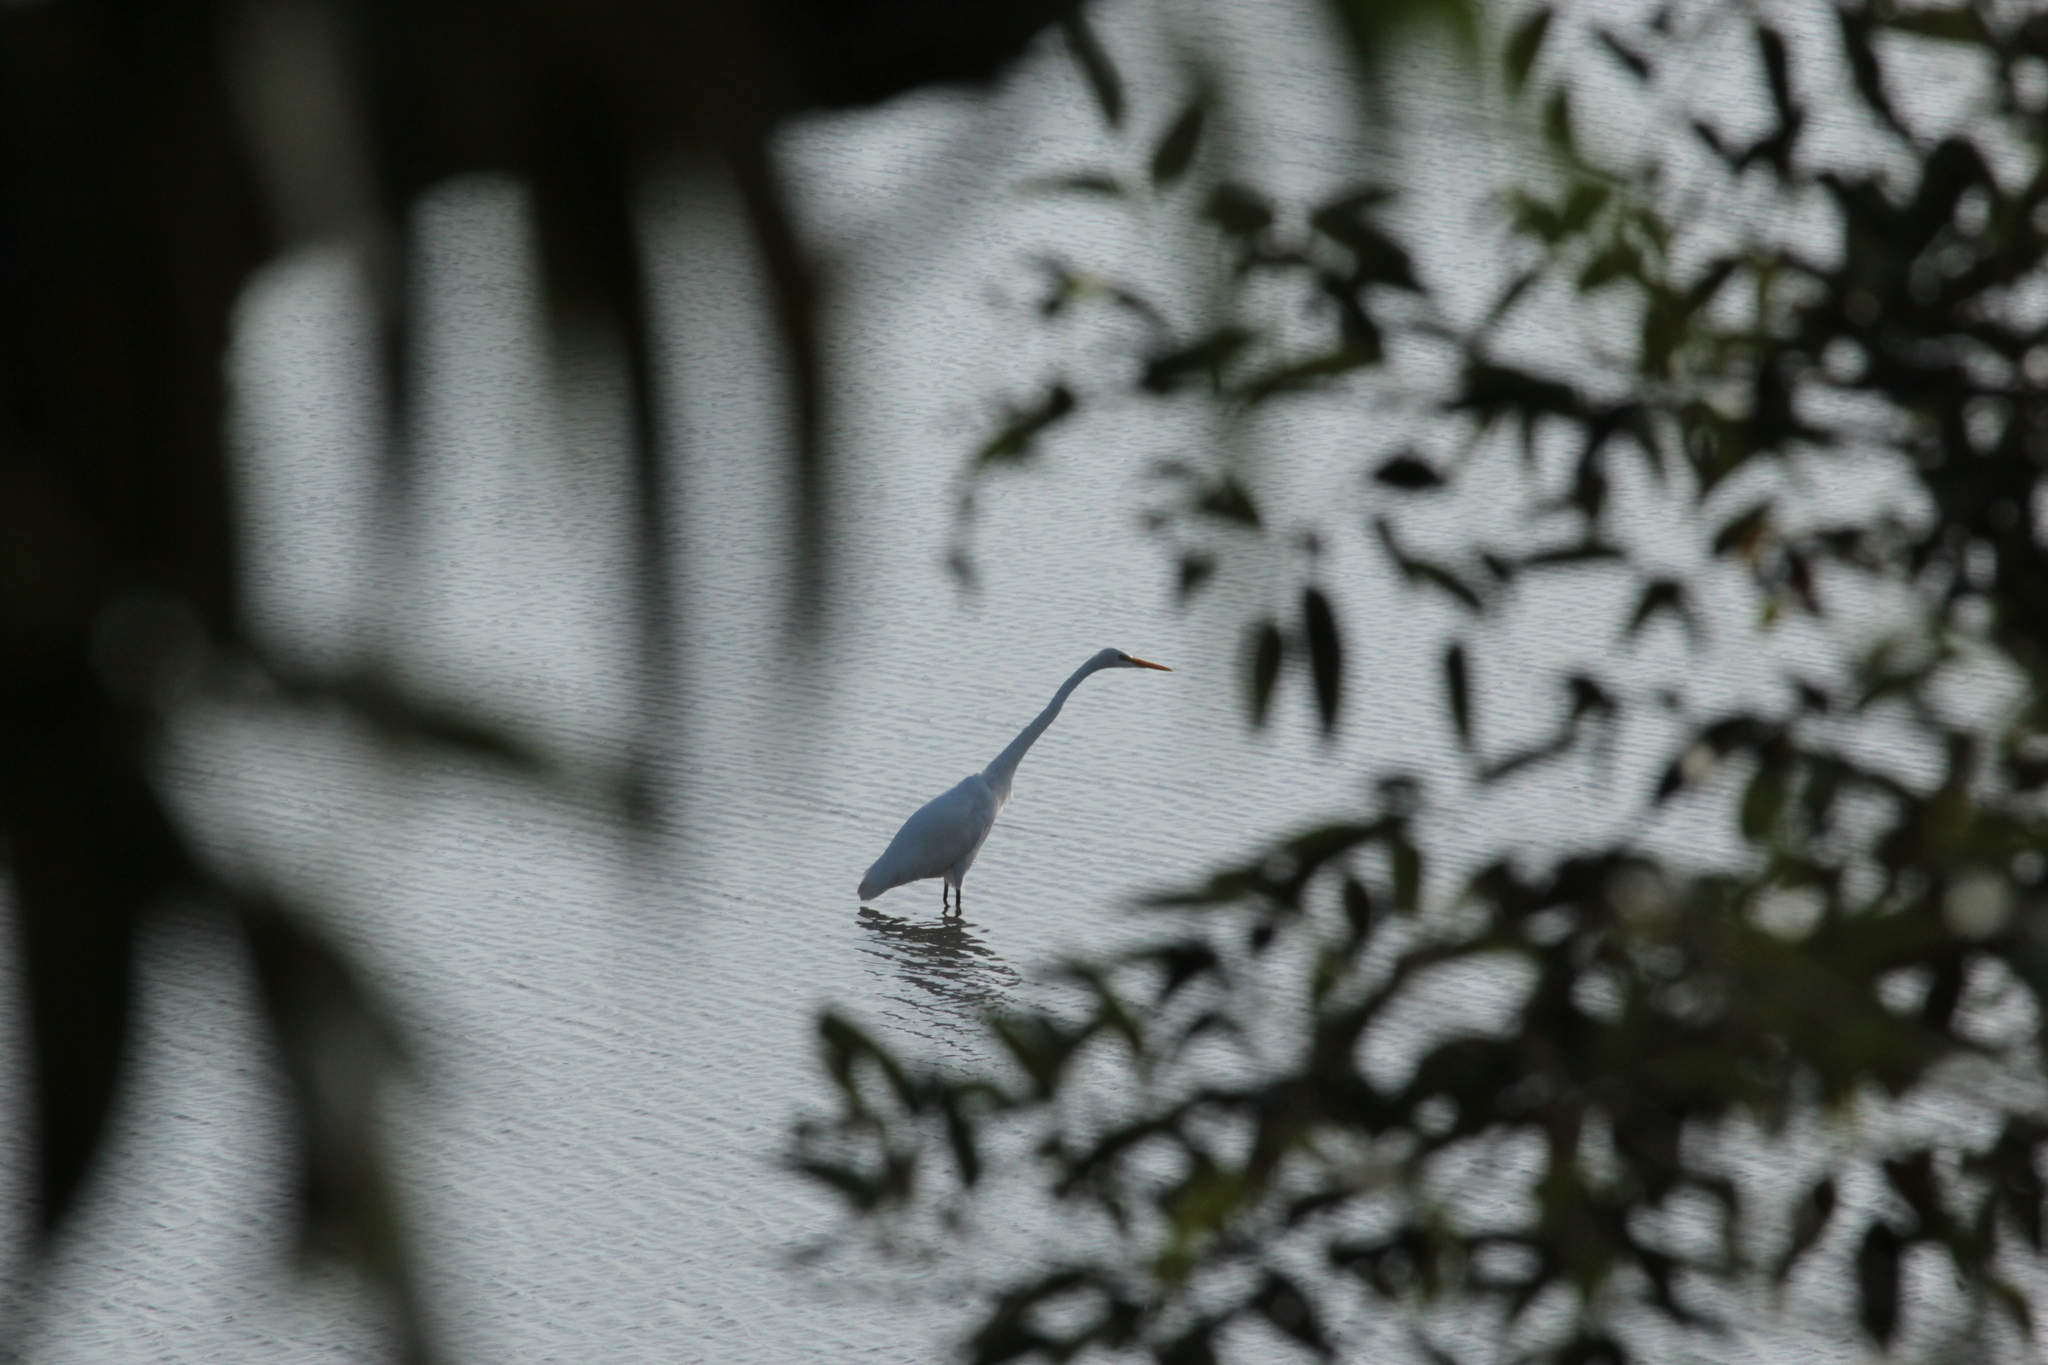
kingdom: Animalia
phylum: Chordata
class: Aves
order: Pelecaniformes
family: Ardeidae
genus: Ardea
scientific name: Ardea alba
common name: Great egret
